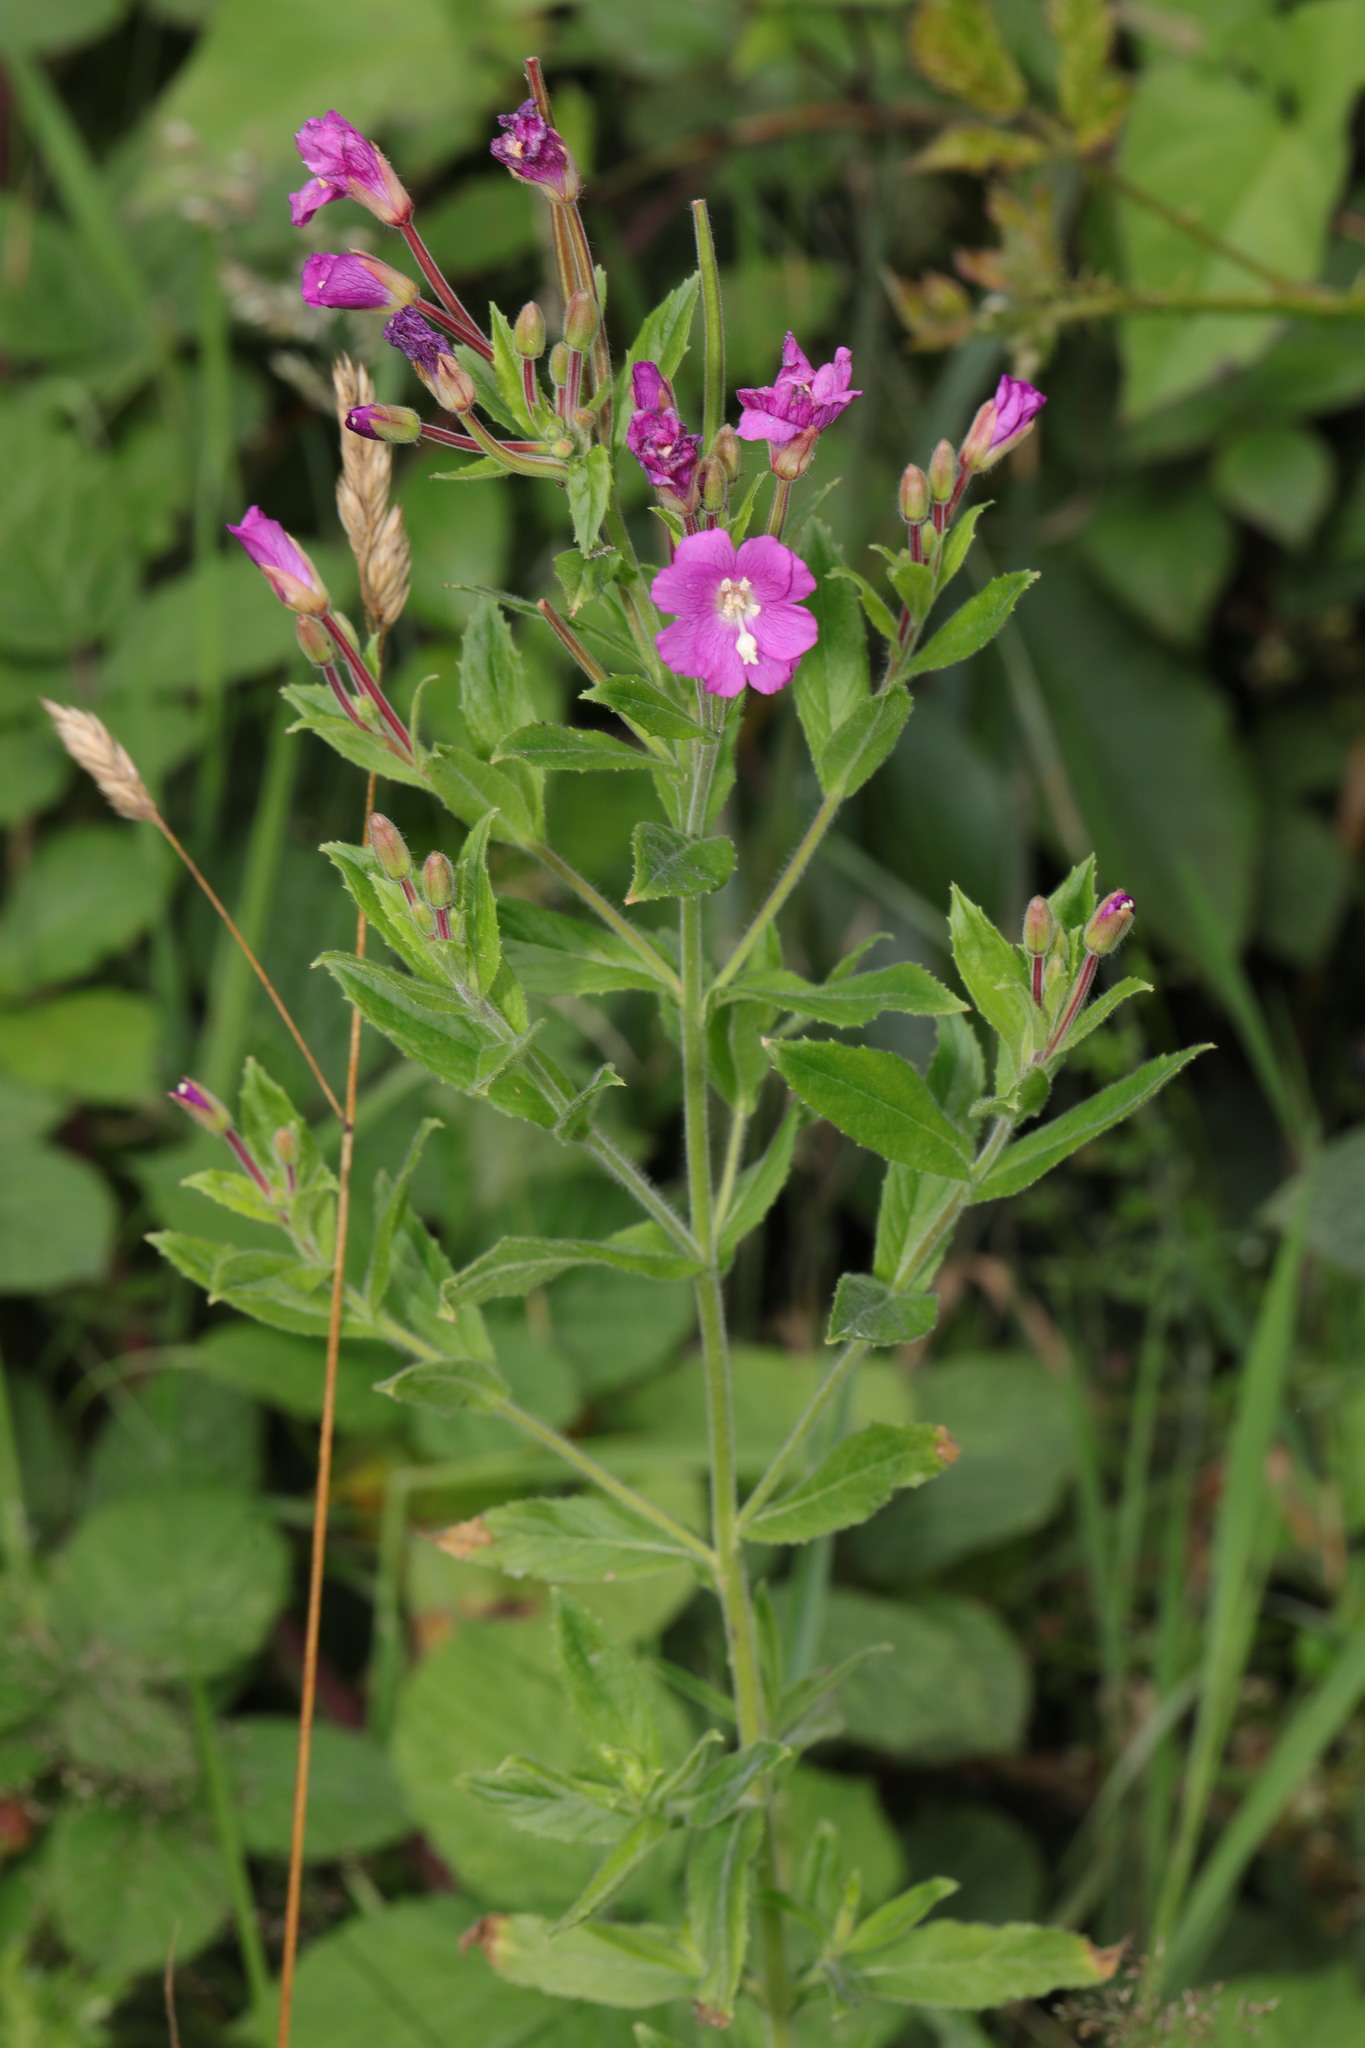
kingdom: Plantae
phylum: Tracheophyta
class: Magnoliopsida
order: Myrtales
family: Onagraceae
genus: Epilobium
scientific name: Epilobium hirsutum
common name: Great willowherb
